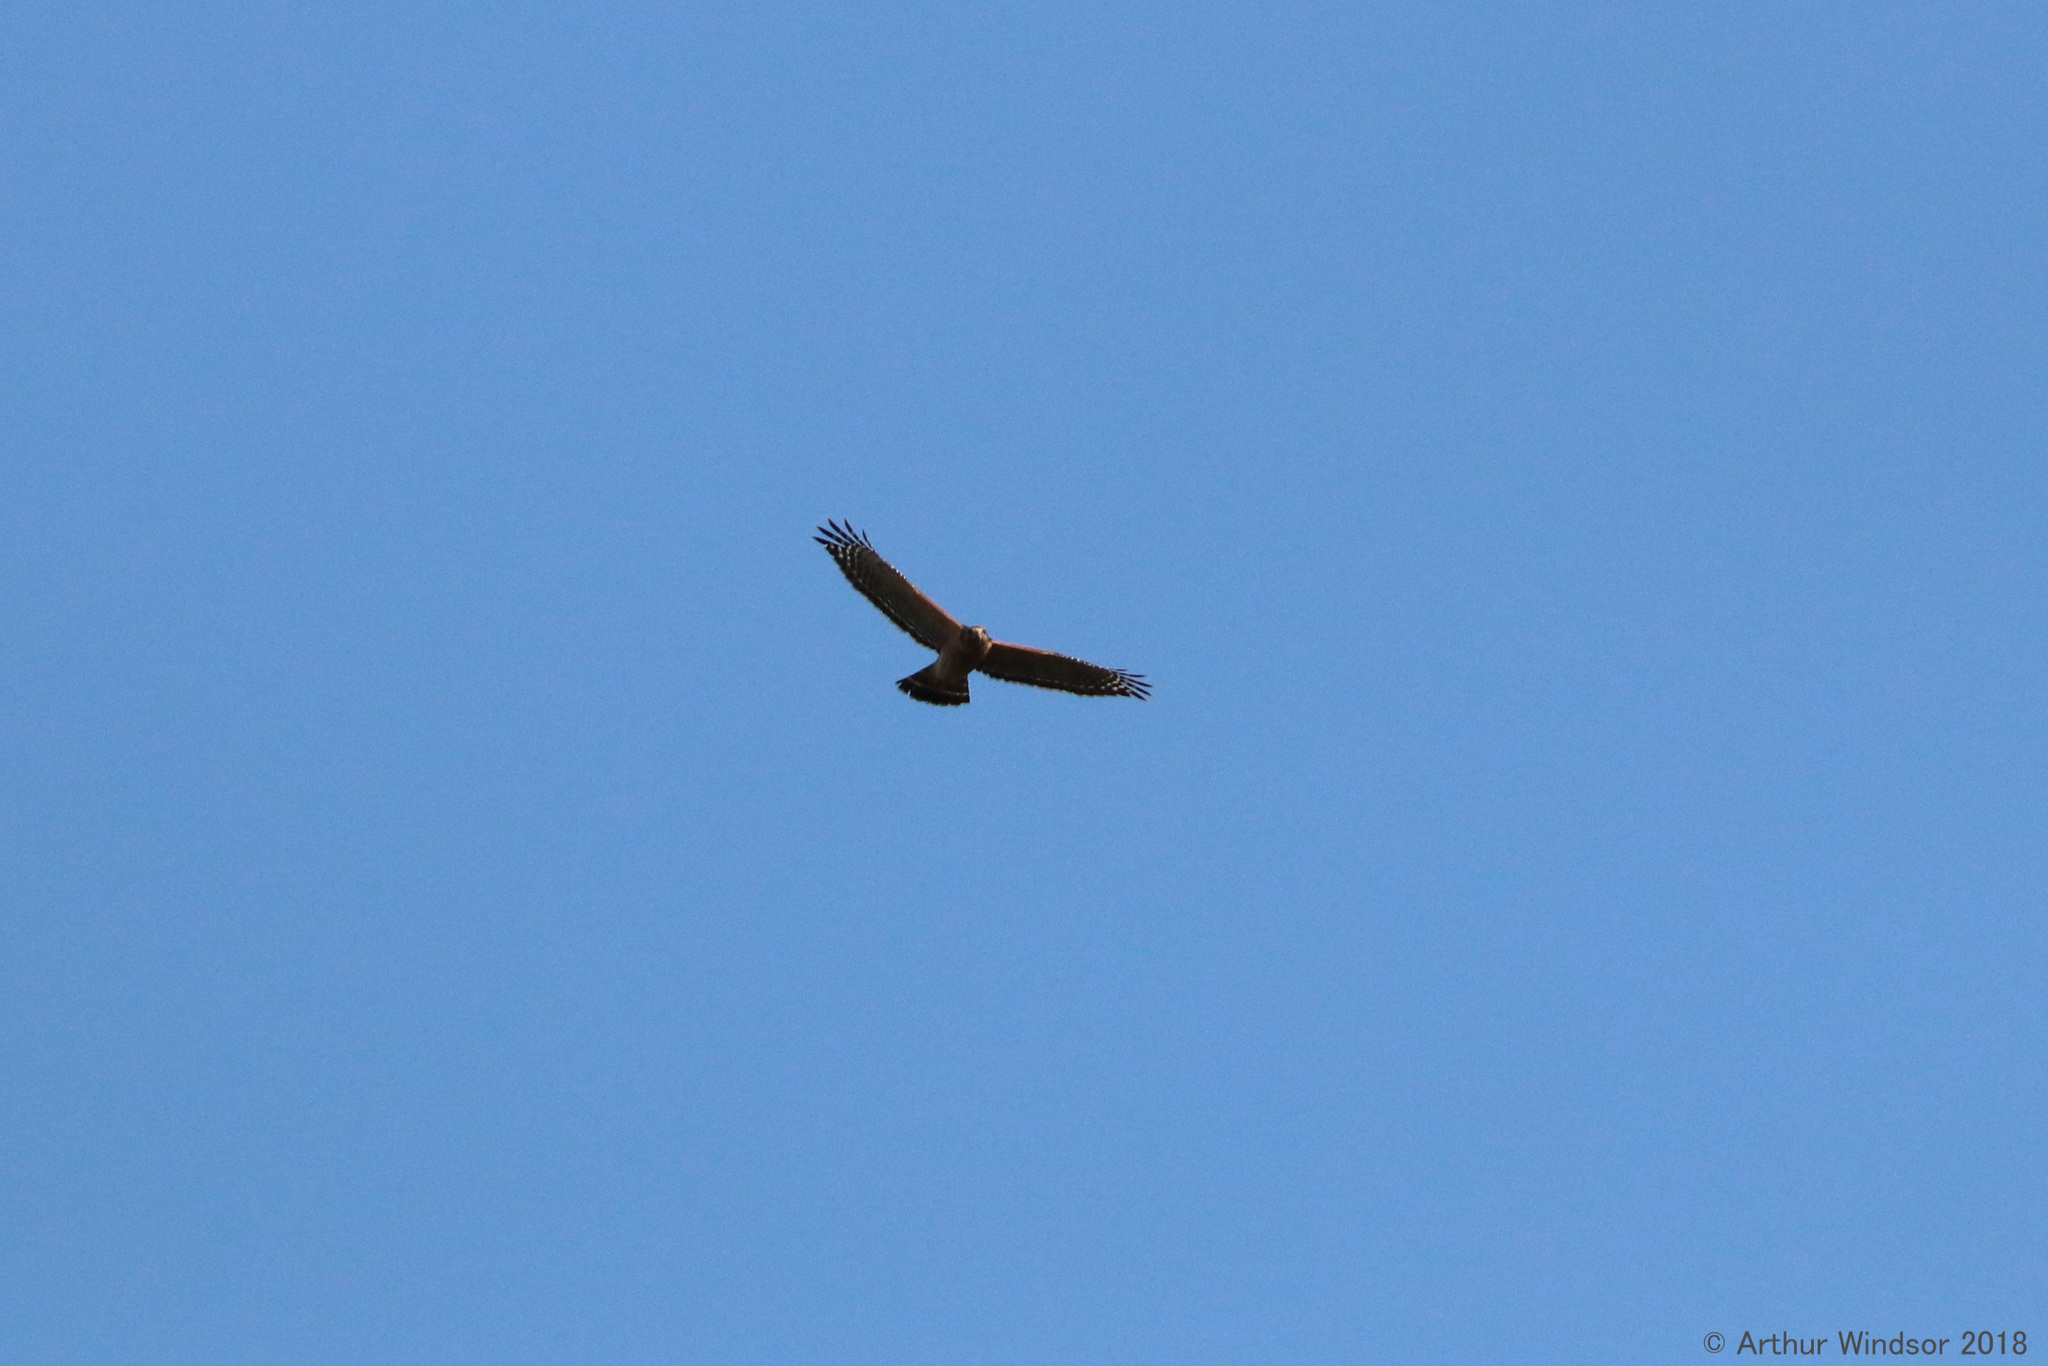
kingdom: Animalia
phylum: Chordata
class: Aves
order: Accipitriformes
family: Accipitridae
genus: Buteo
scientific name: Buteo lineatus
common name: Red-shouldered hawk
